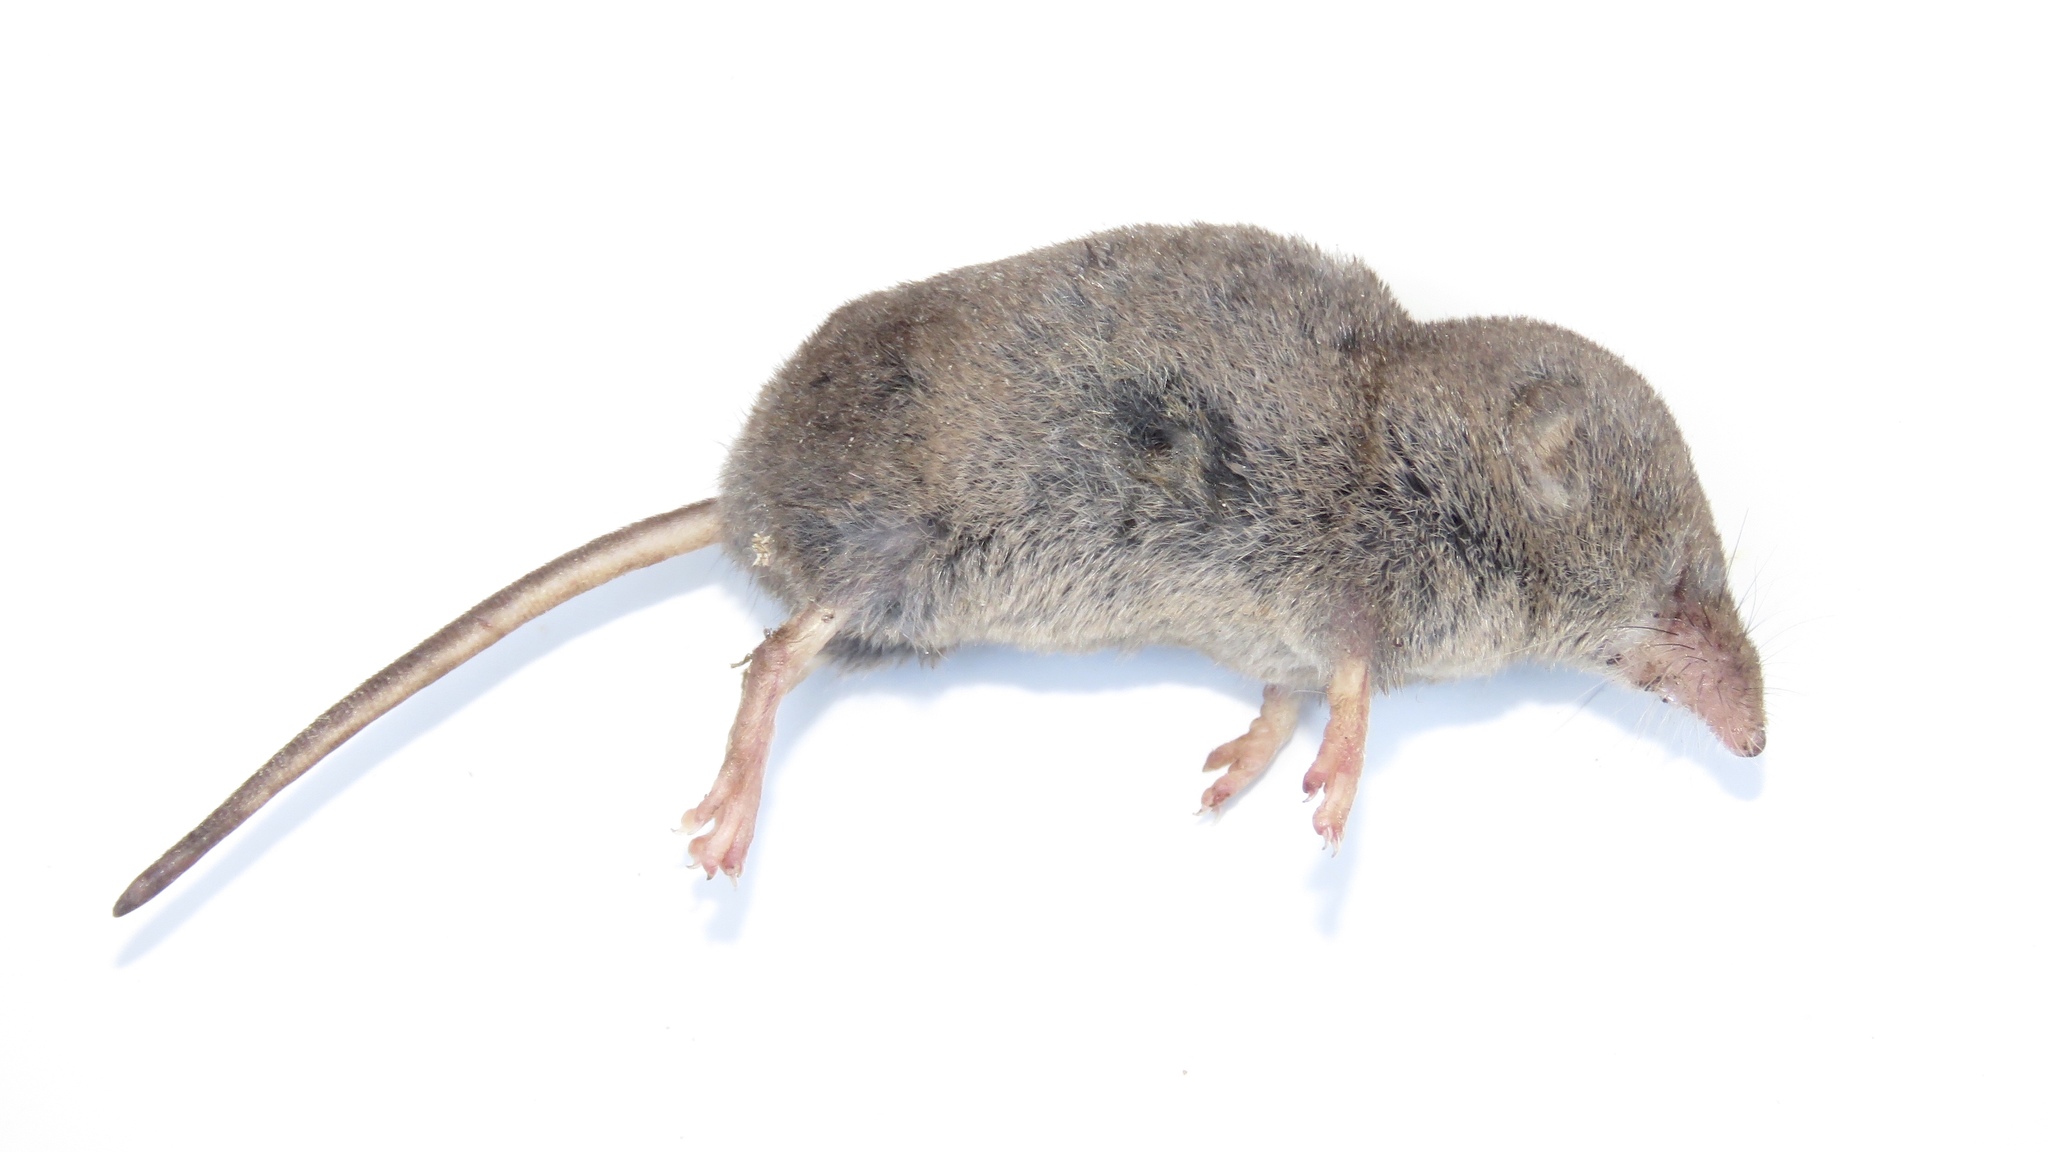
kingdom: Animalia
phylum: Chordata
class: Mammalia
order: Soricomorpha
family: Soricidae
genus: Sorex
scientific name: Sorex cinereus
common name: Cinereus shrew
